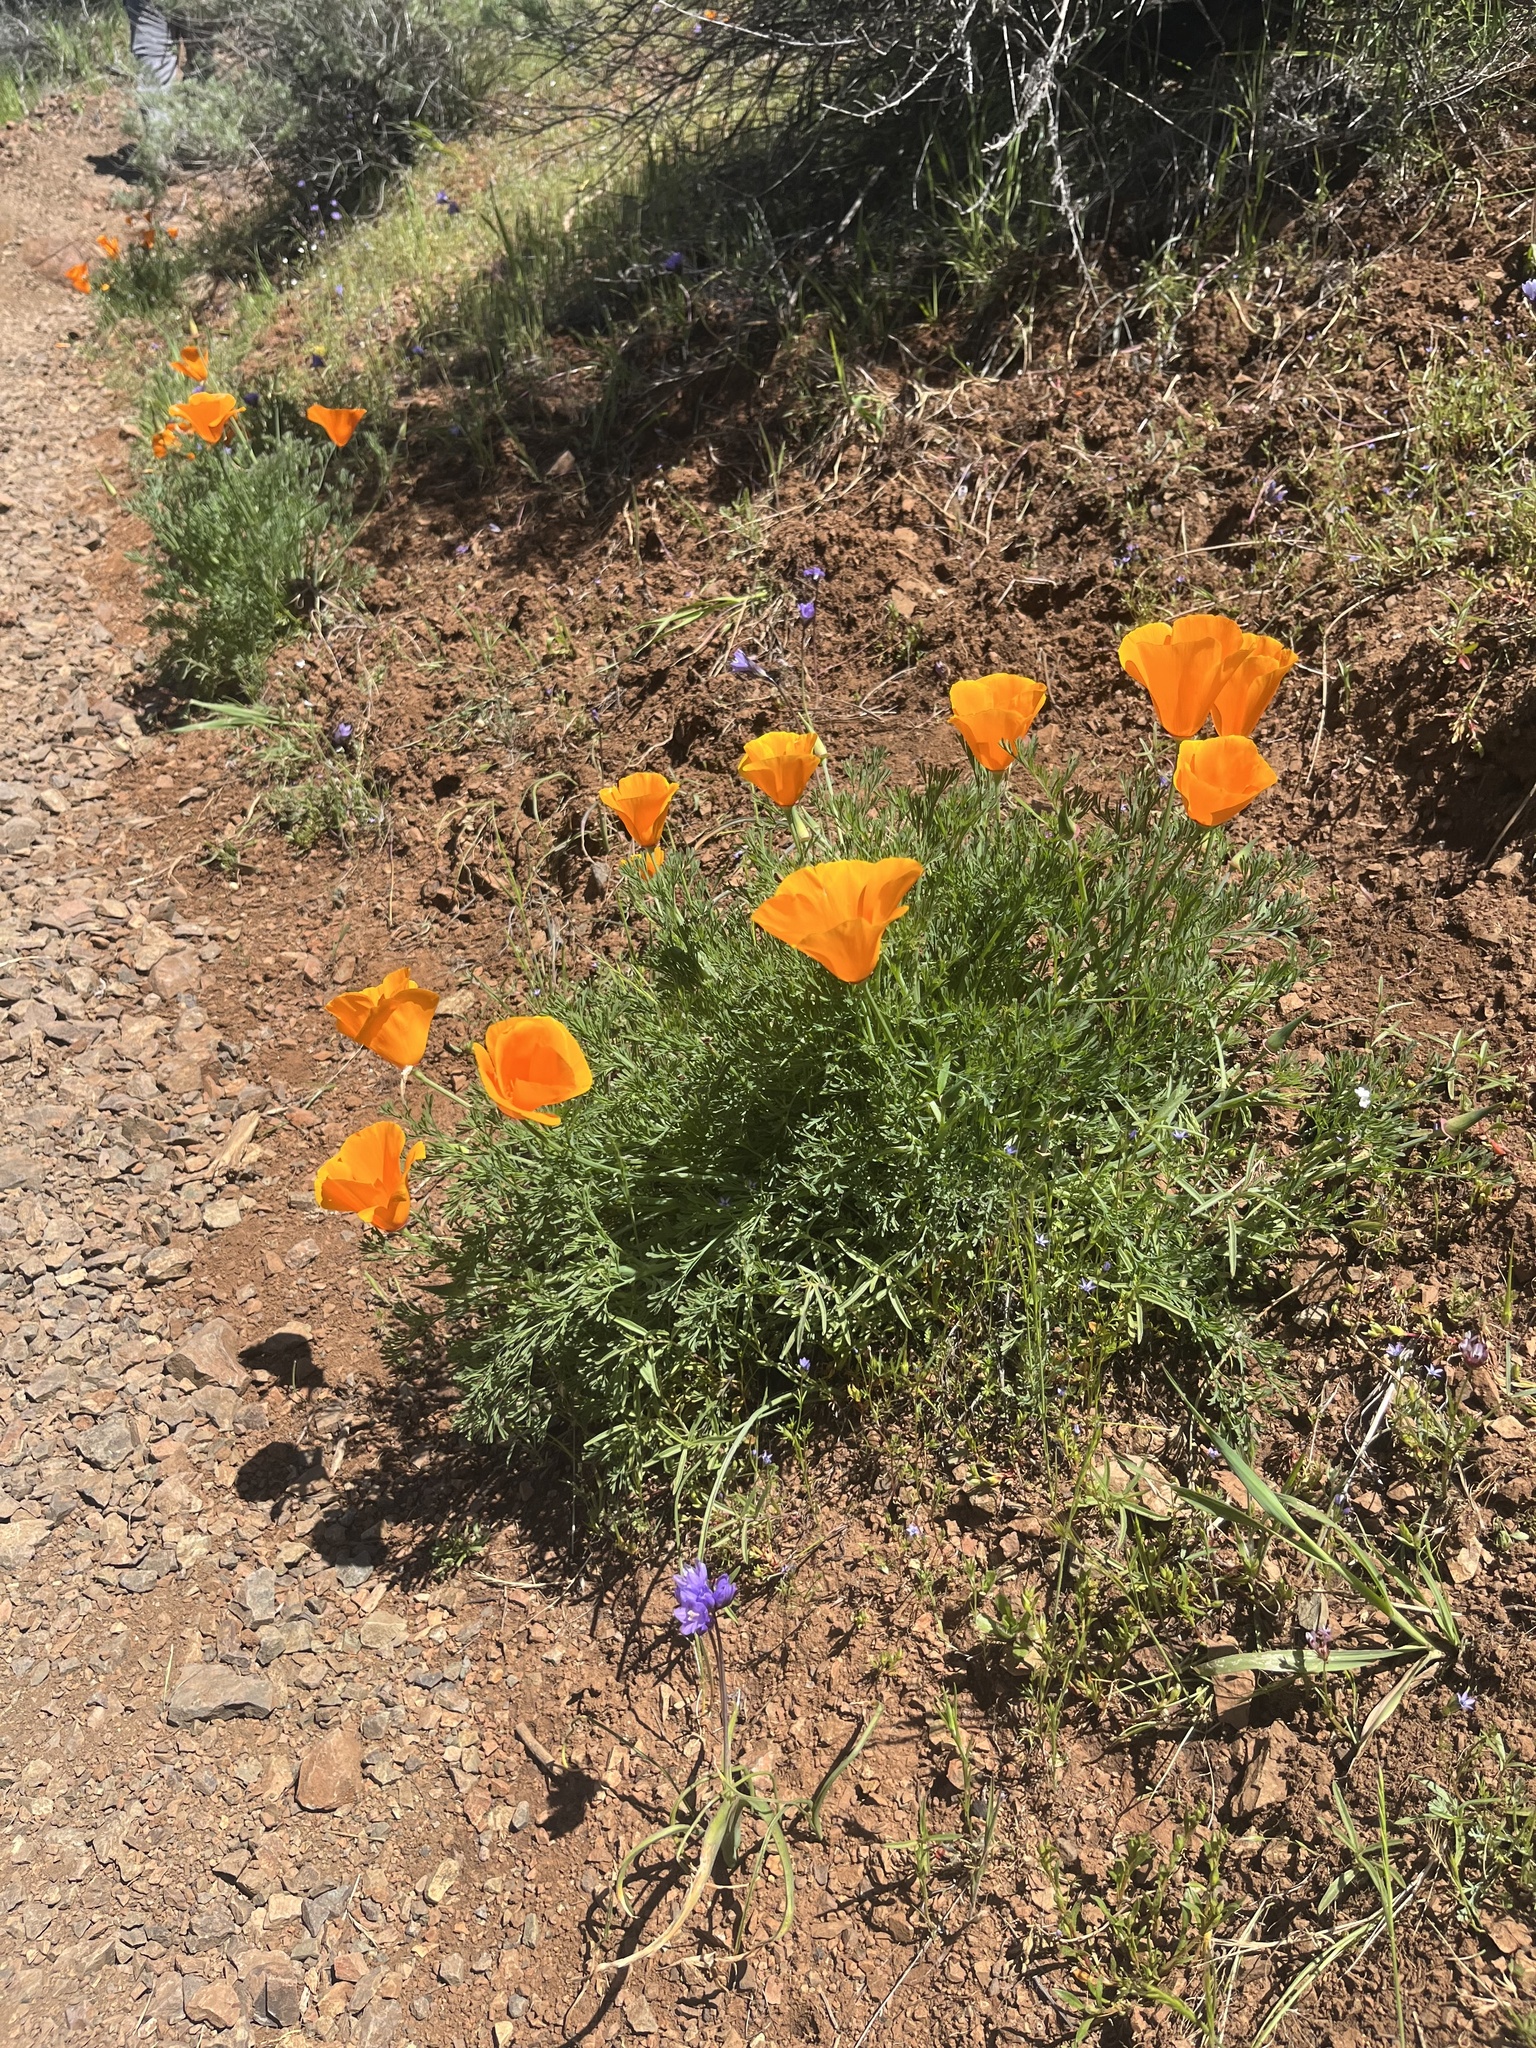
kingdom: Plantae
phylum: Tracheophyta
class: Magnoliopsida
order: Ranunculales
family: Papaveraceae
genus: Eschscholzia
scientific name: Eschscholzia californica
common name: California poppy
